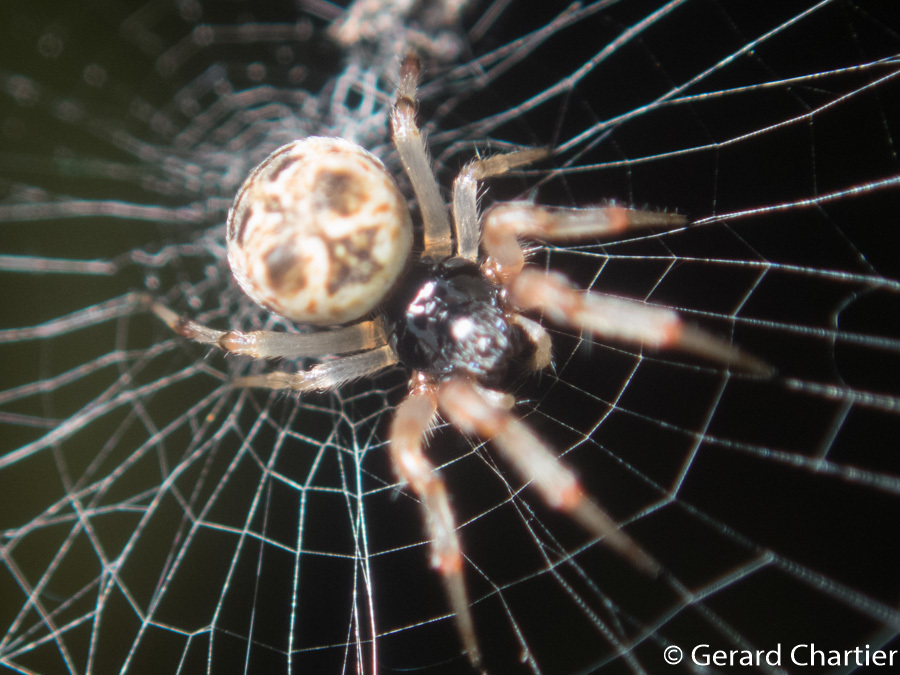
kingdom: Animalia
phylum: Arthropoda
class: Arachnida
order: Araneae
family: Araneidae
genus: Cyclosa
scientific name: Cyclosa mulmeinensis
